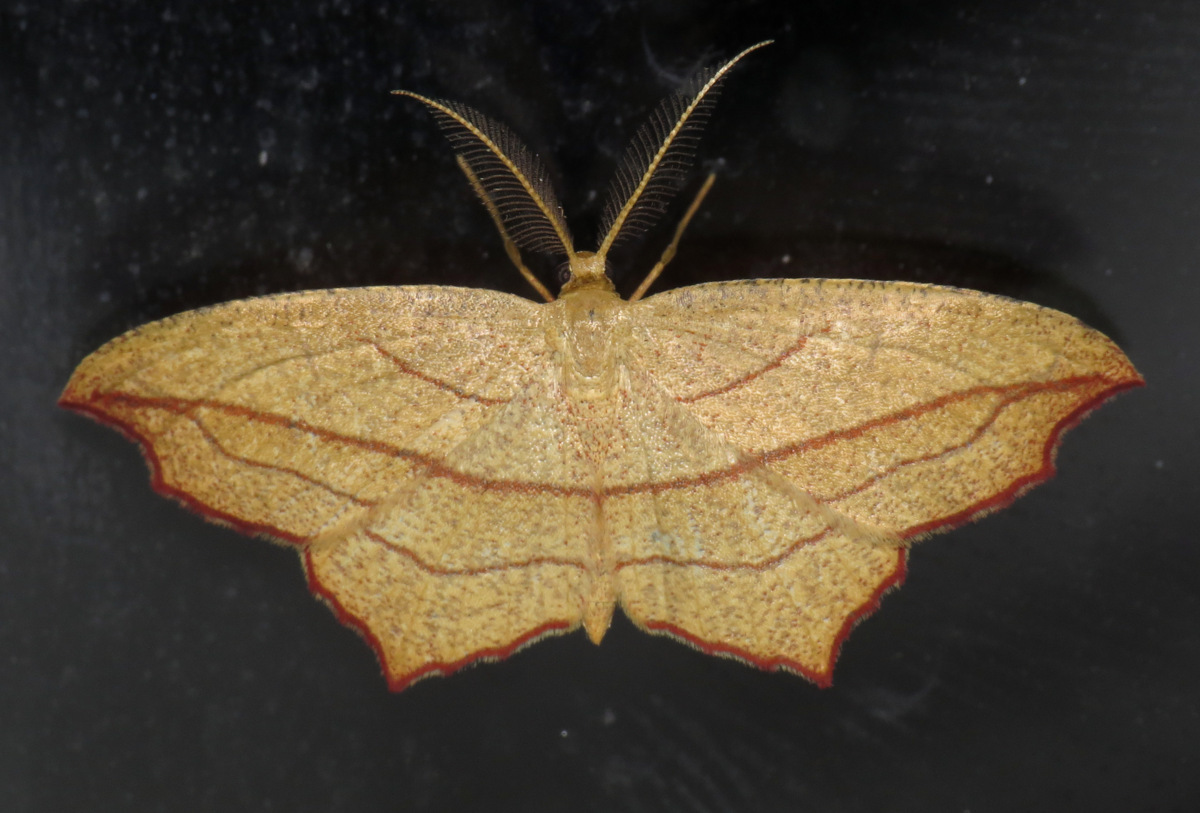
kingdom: Animalia
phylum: Arthropoda
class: Insecta
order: Lepidoptera
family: Geometridae
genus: Timandra
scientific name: Timandra amaturaria
